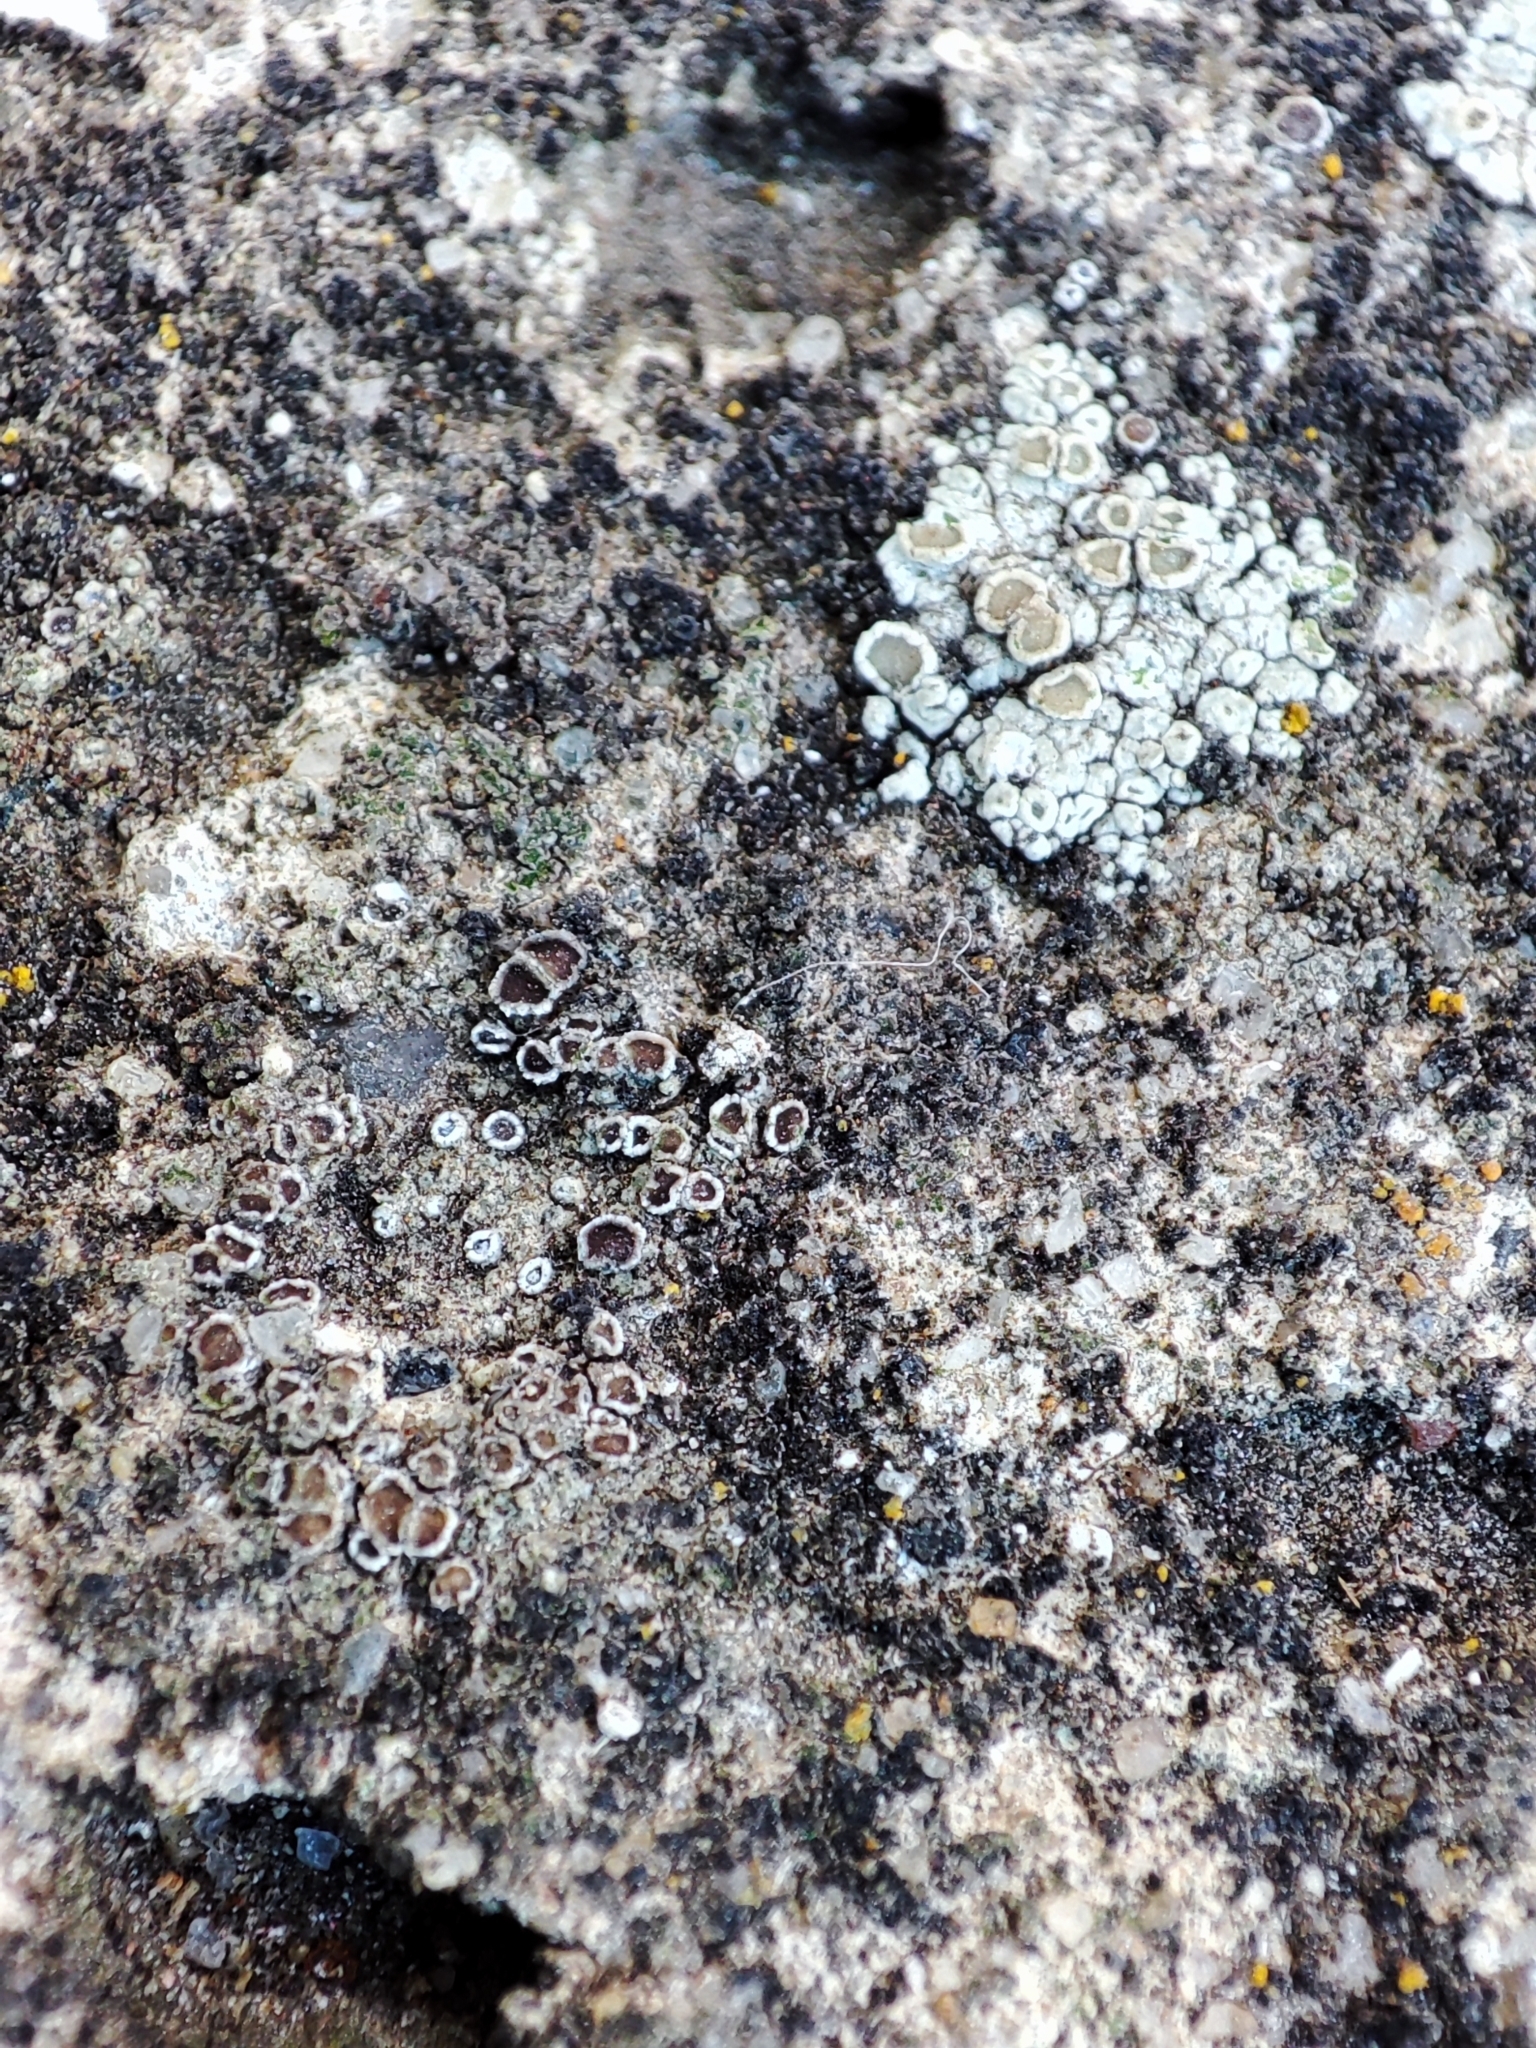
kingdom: Fungi
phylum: Ascomycota
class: Lecanoromycetes
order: Lecanorales
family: Lecanoraceae
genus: Polyozosia
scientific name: Polyozosia dispersa
